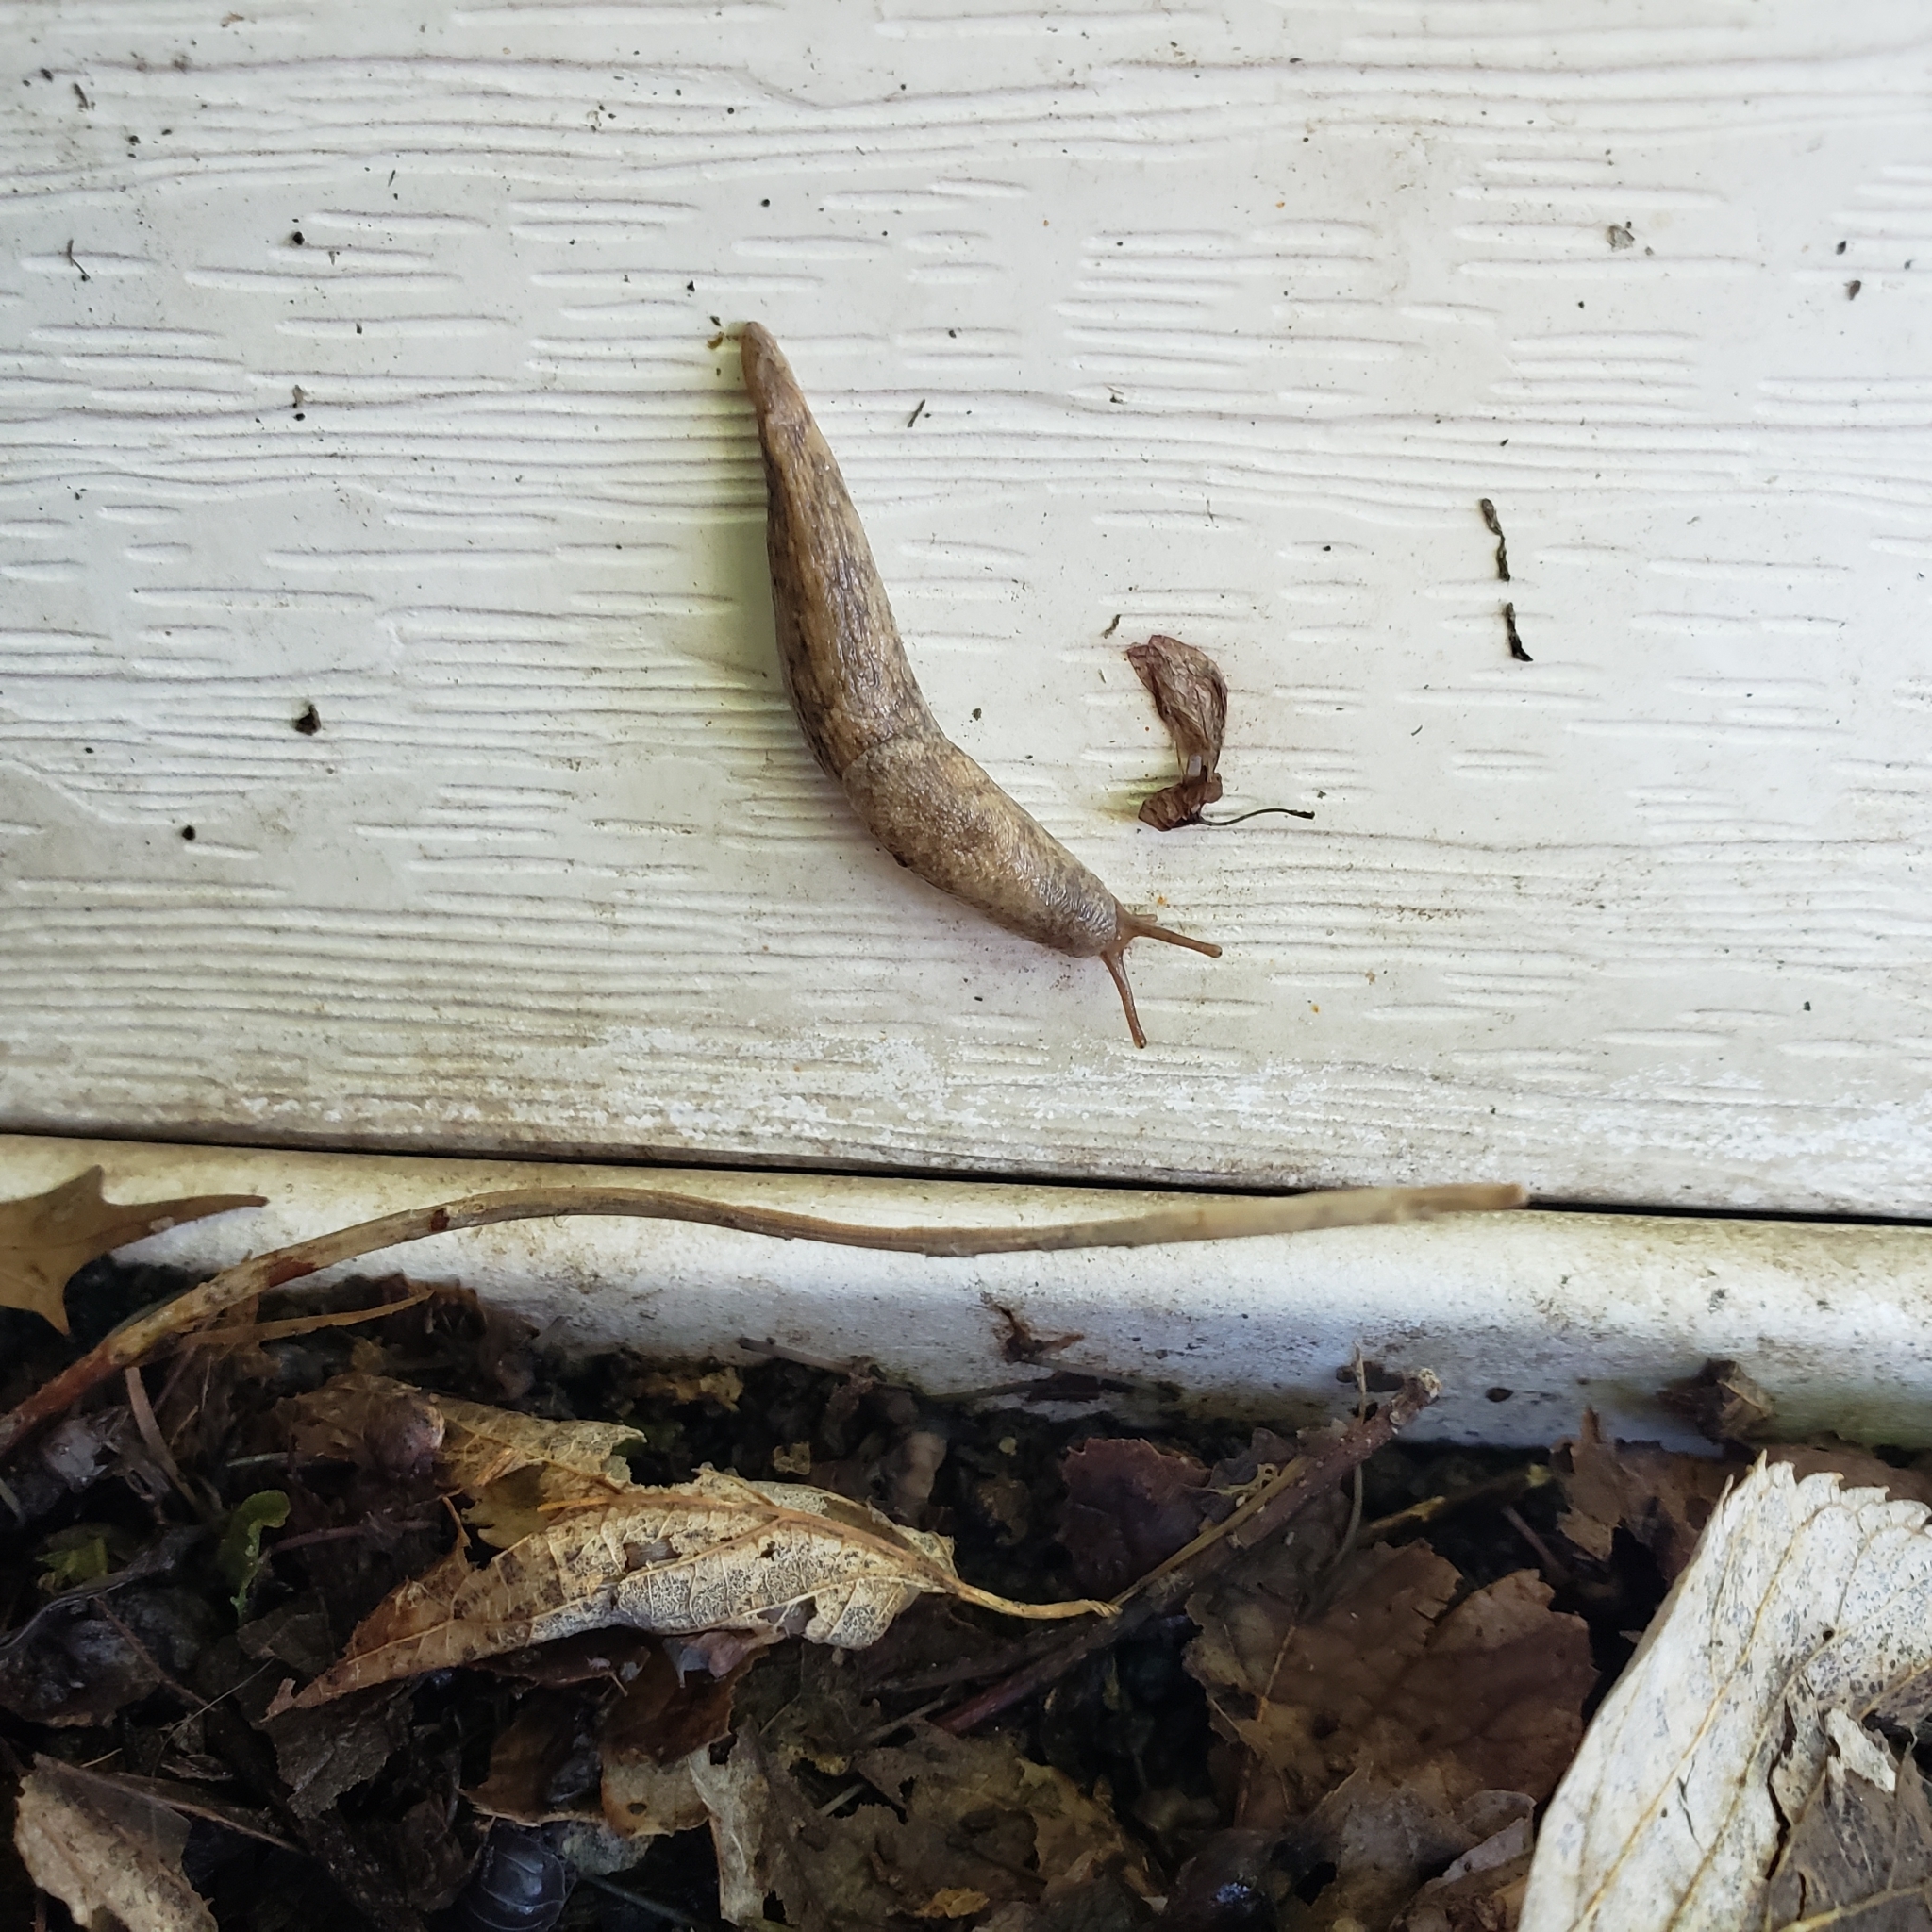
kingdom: Animalia
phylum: Mollusca
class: Gastropoda
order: Stylommatophora
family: Agriolimacidae
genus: Deroceras
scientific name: Deroceras reticulatum
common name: Gray field slug
